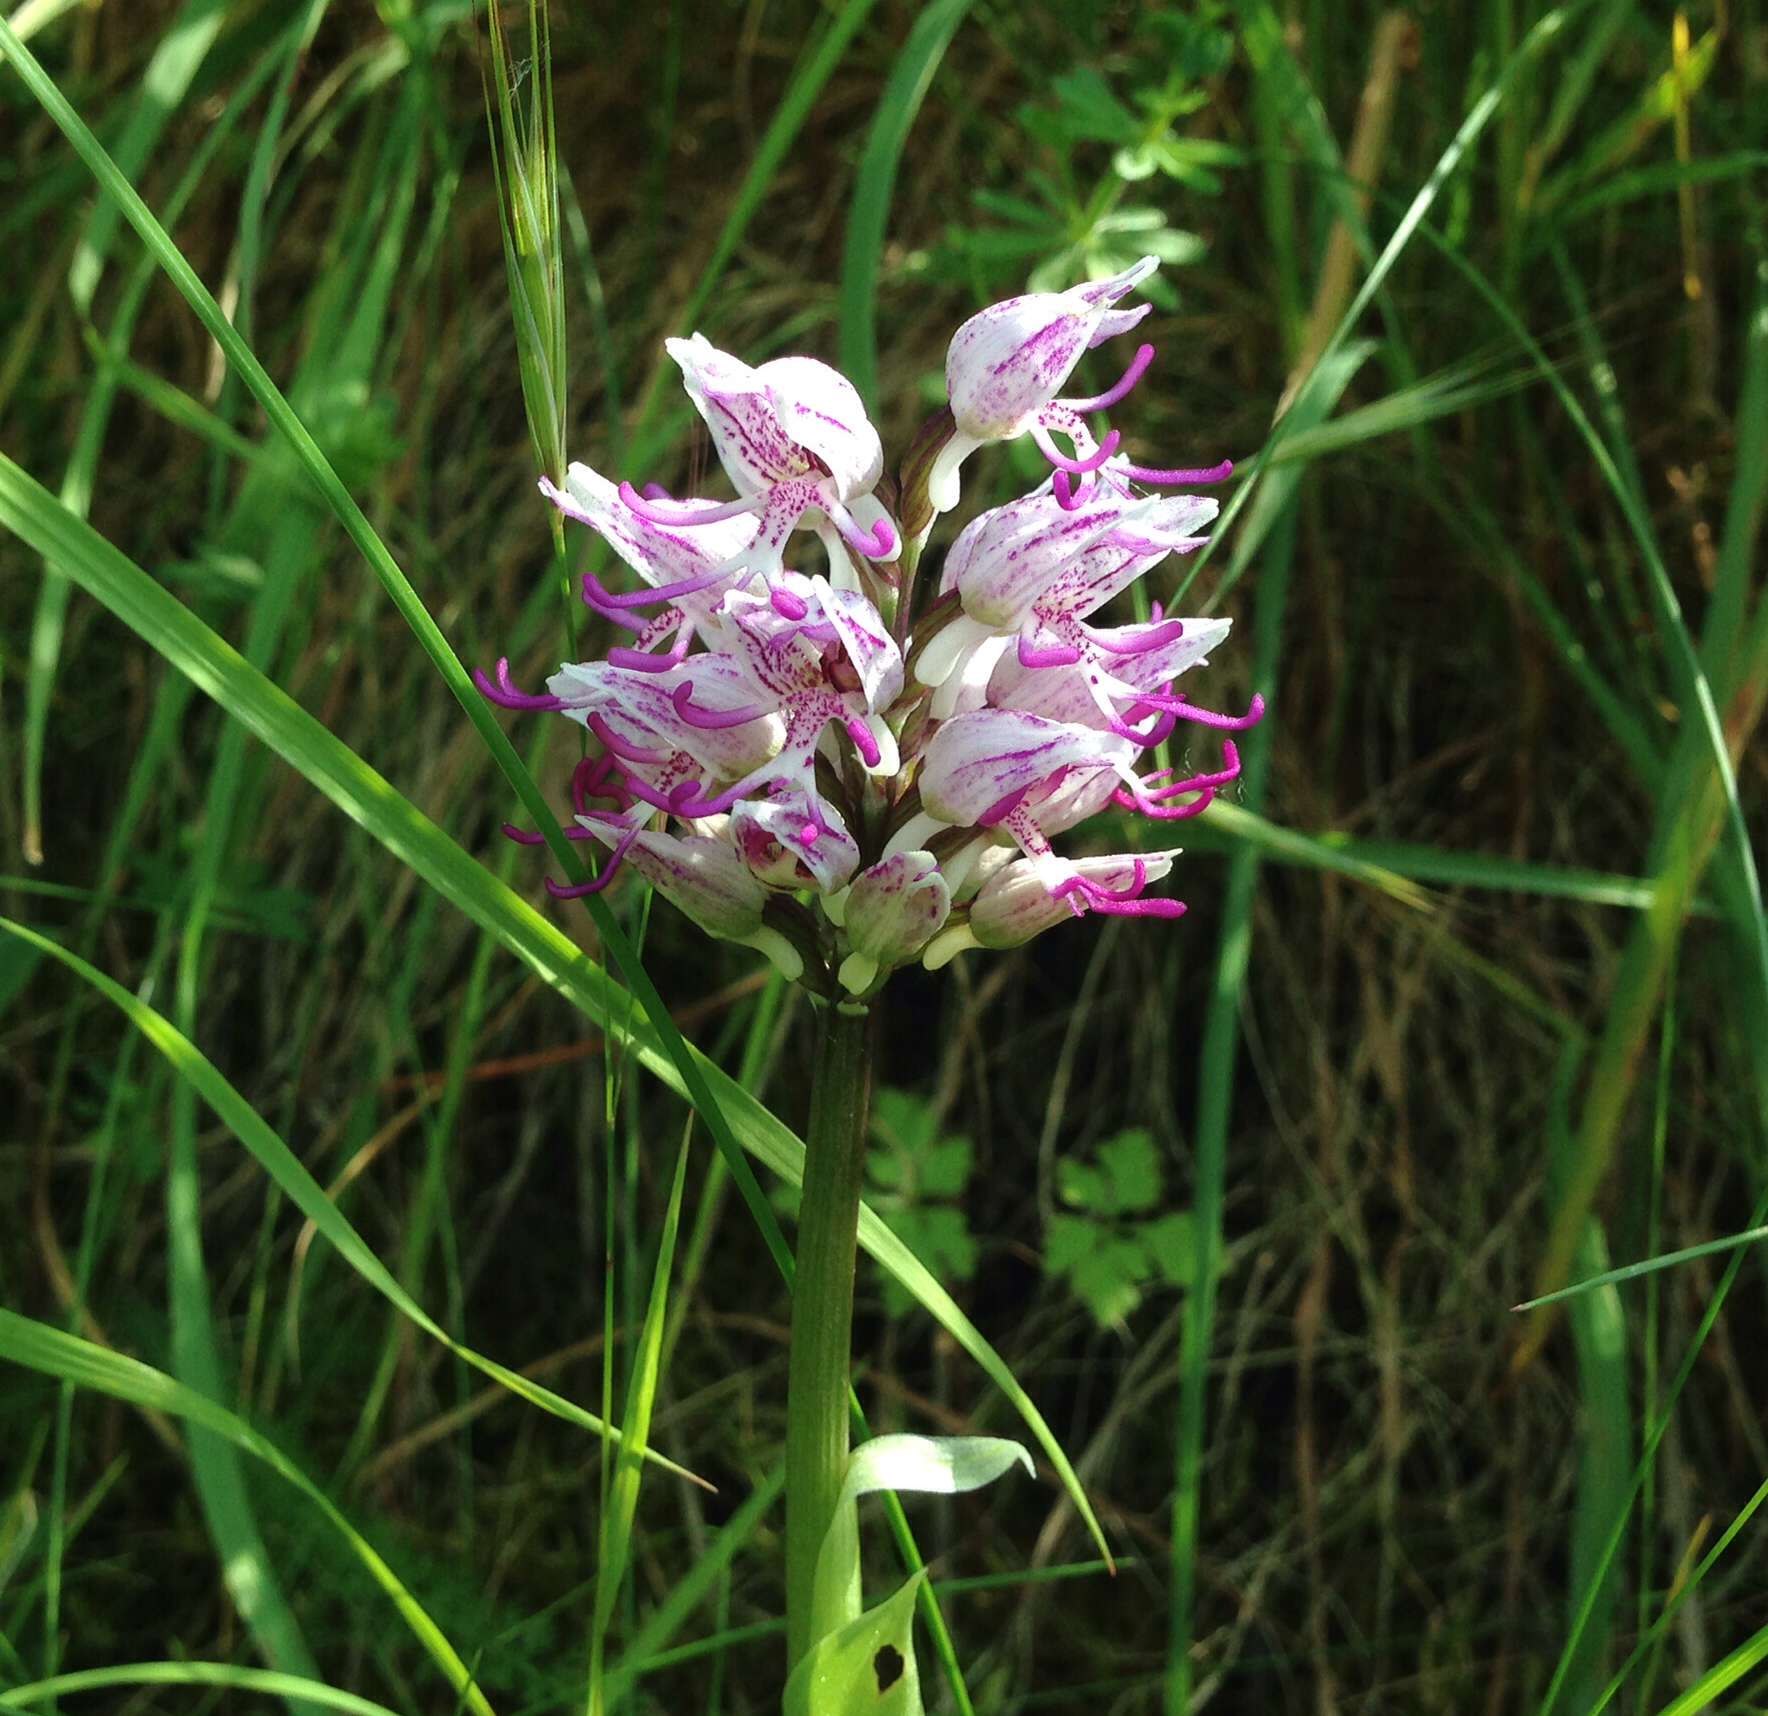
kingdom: Plantae
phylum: Tracheophyta
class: Liliopsida
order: Asparagales
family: Orchidaceae
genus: Orchis
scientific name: Orchis simia
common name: Monkey orchid
